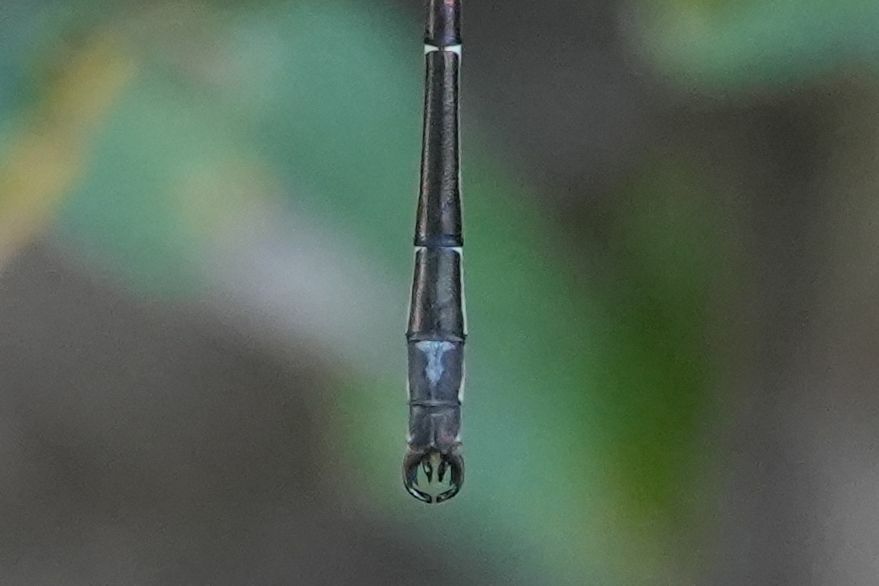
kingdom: Animalia
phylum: Arthropoda
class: Insecta
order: Odonata
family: Lestidae
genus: Lestes
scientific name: Lestes rectangularis
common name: Slender spreadwing
